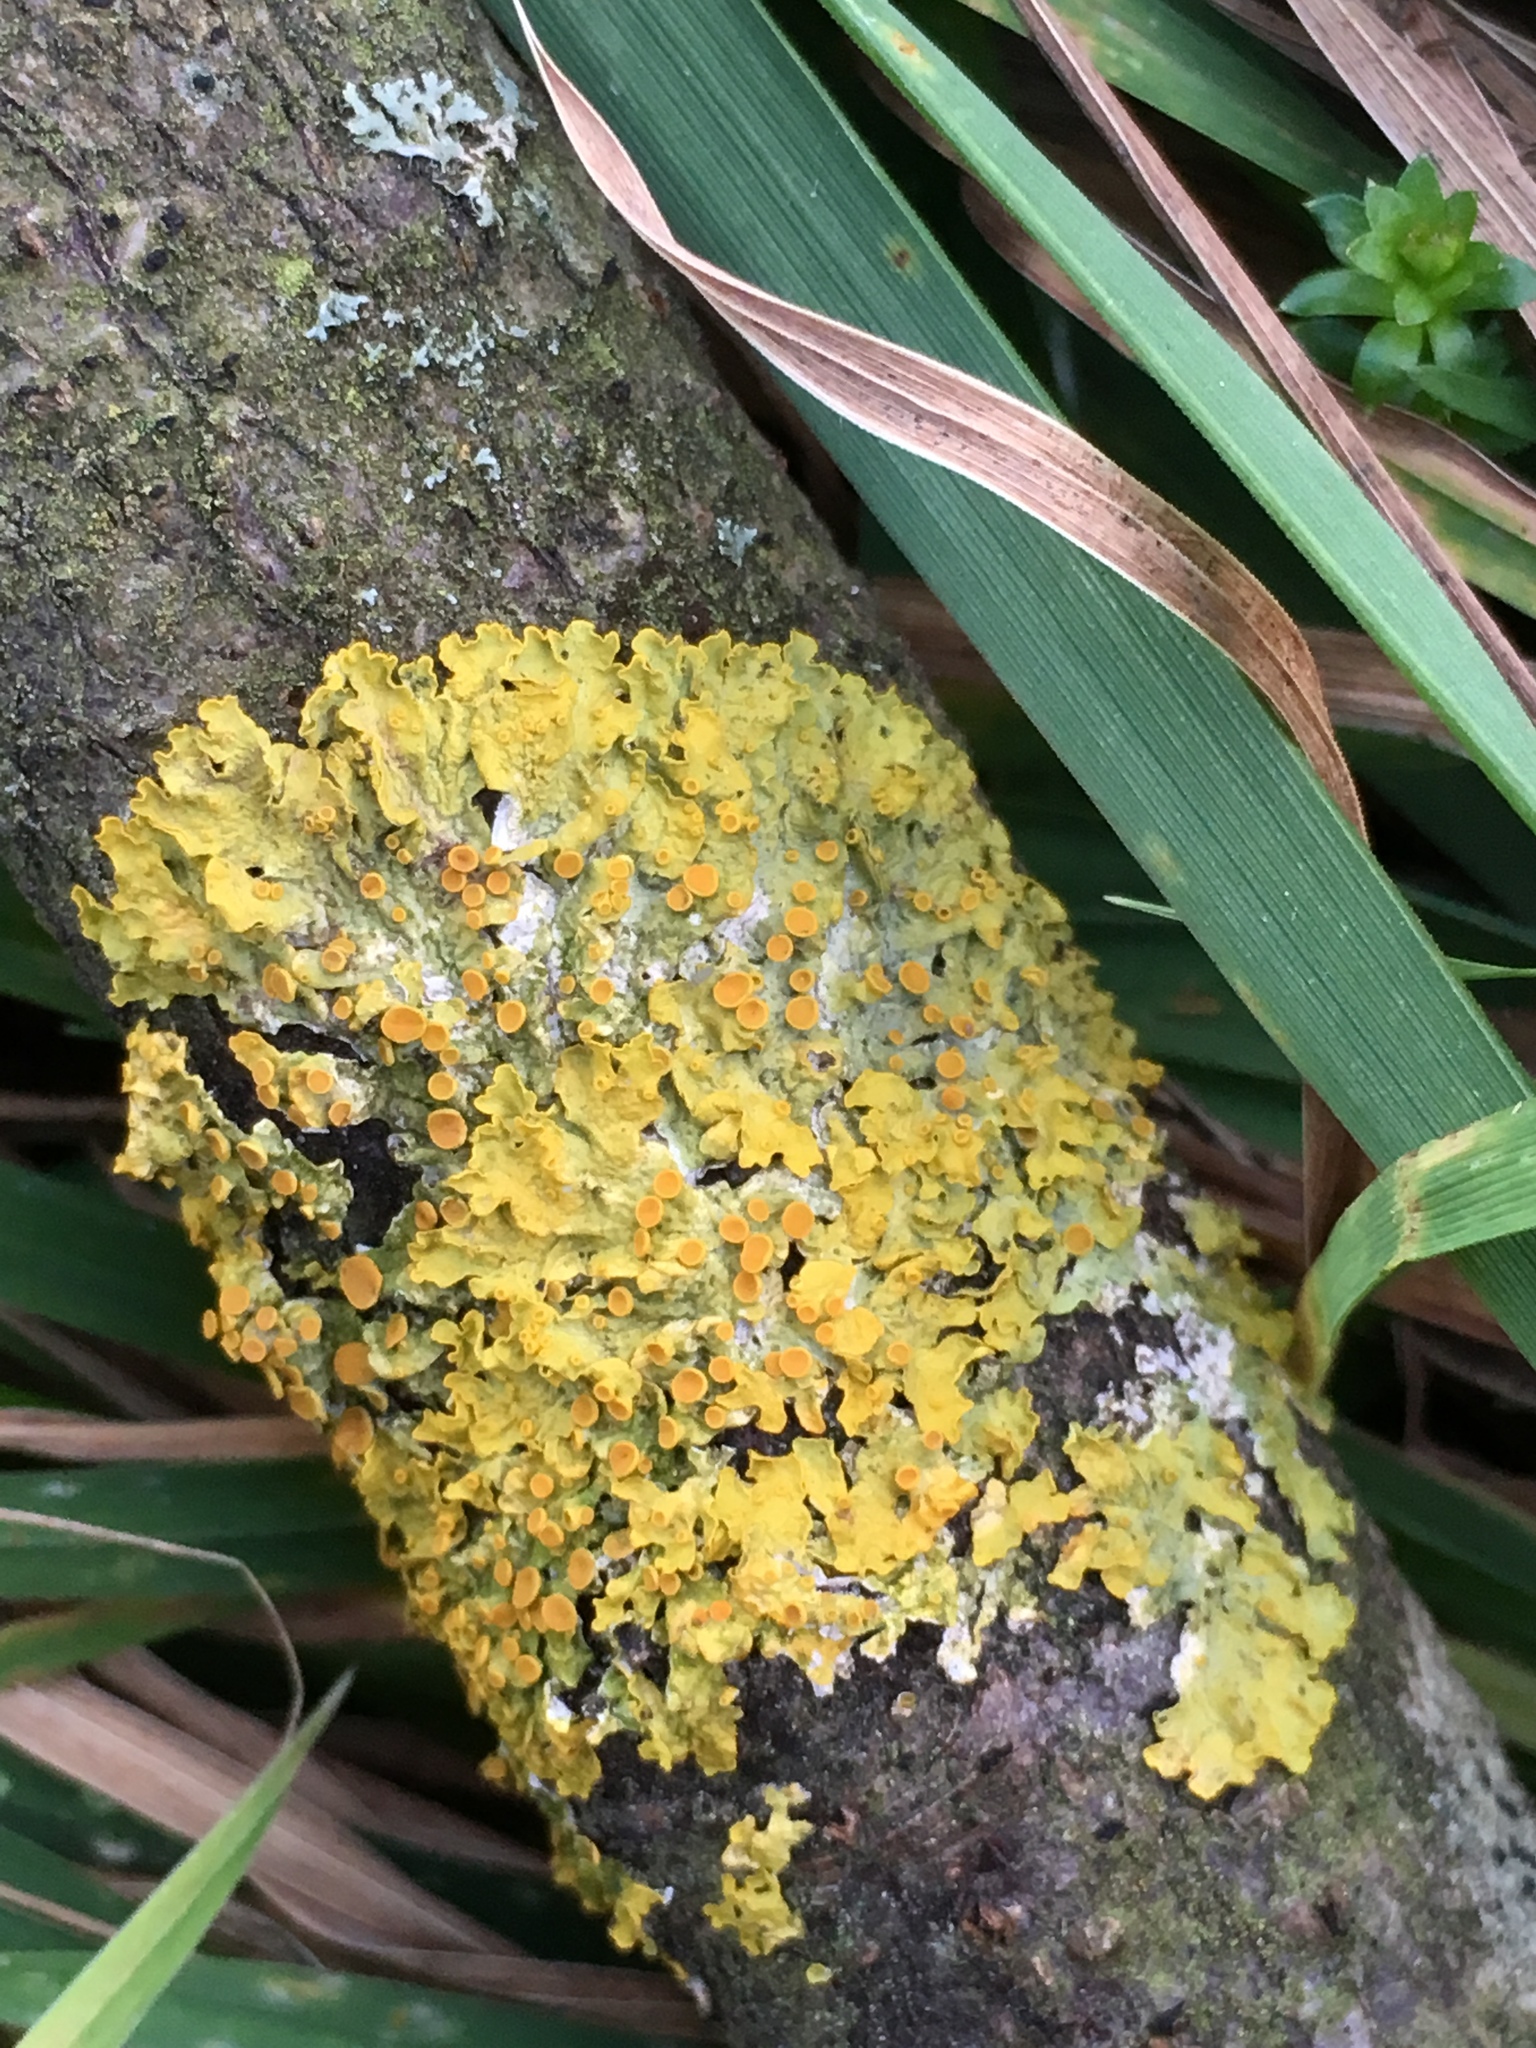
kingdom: Fungi
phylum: Ascomycota
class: Lecanoromycetes
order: Teloschistales
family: Teloschistaceae
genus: Xanthoria
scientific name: Xanthoria parietina
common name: Common orange lichen
